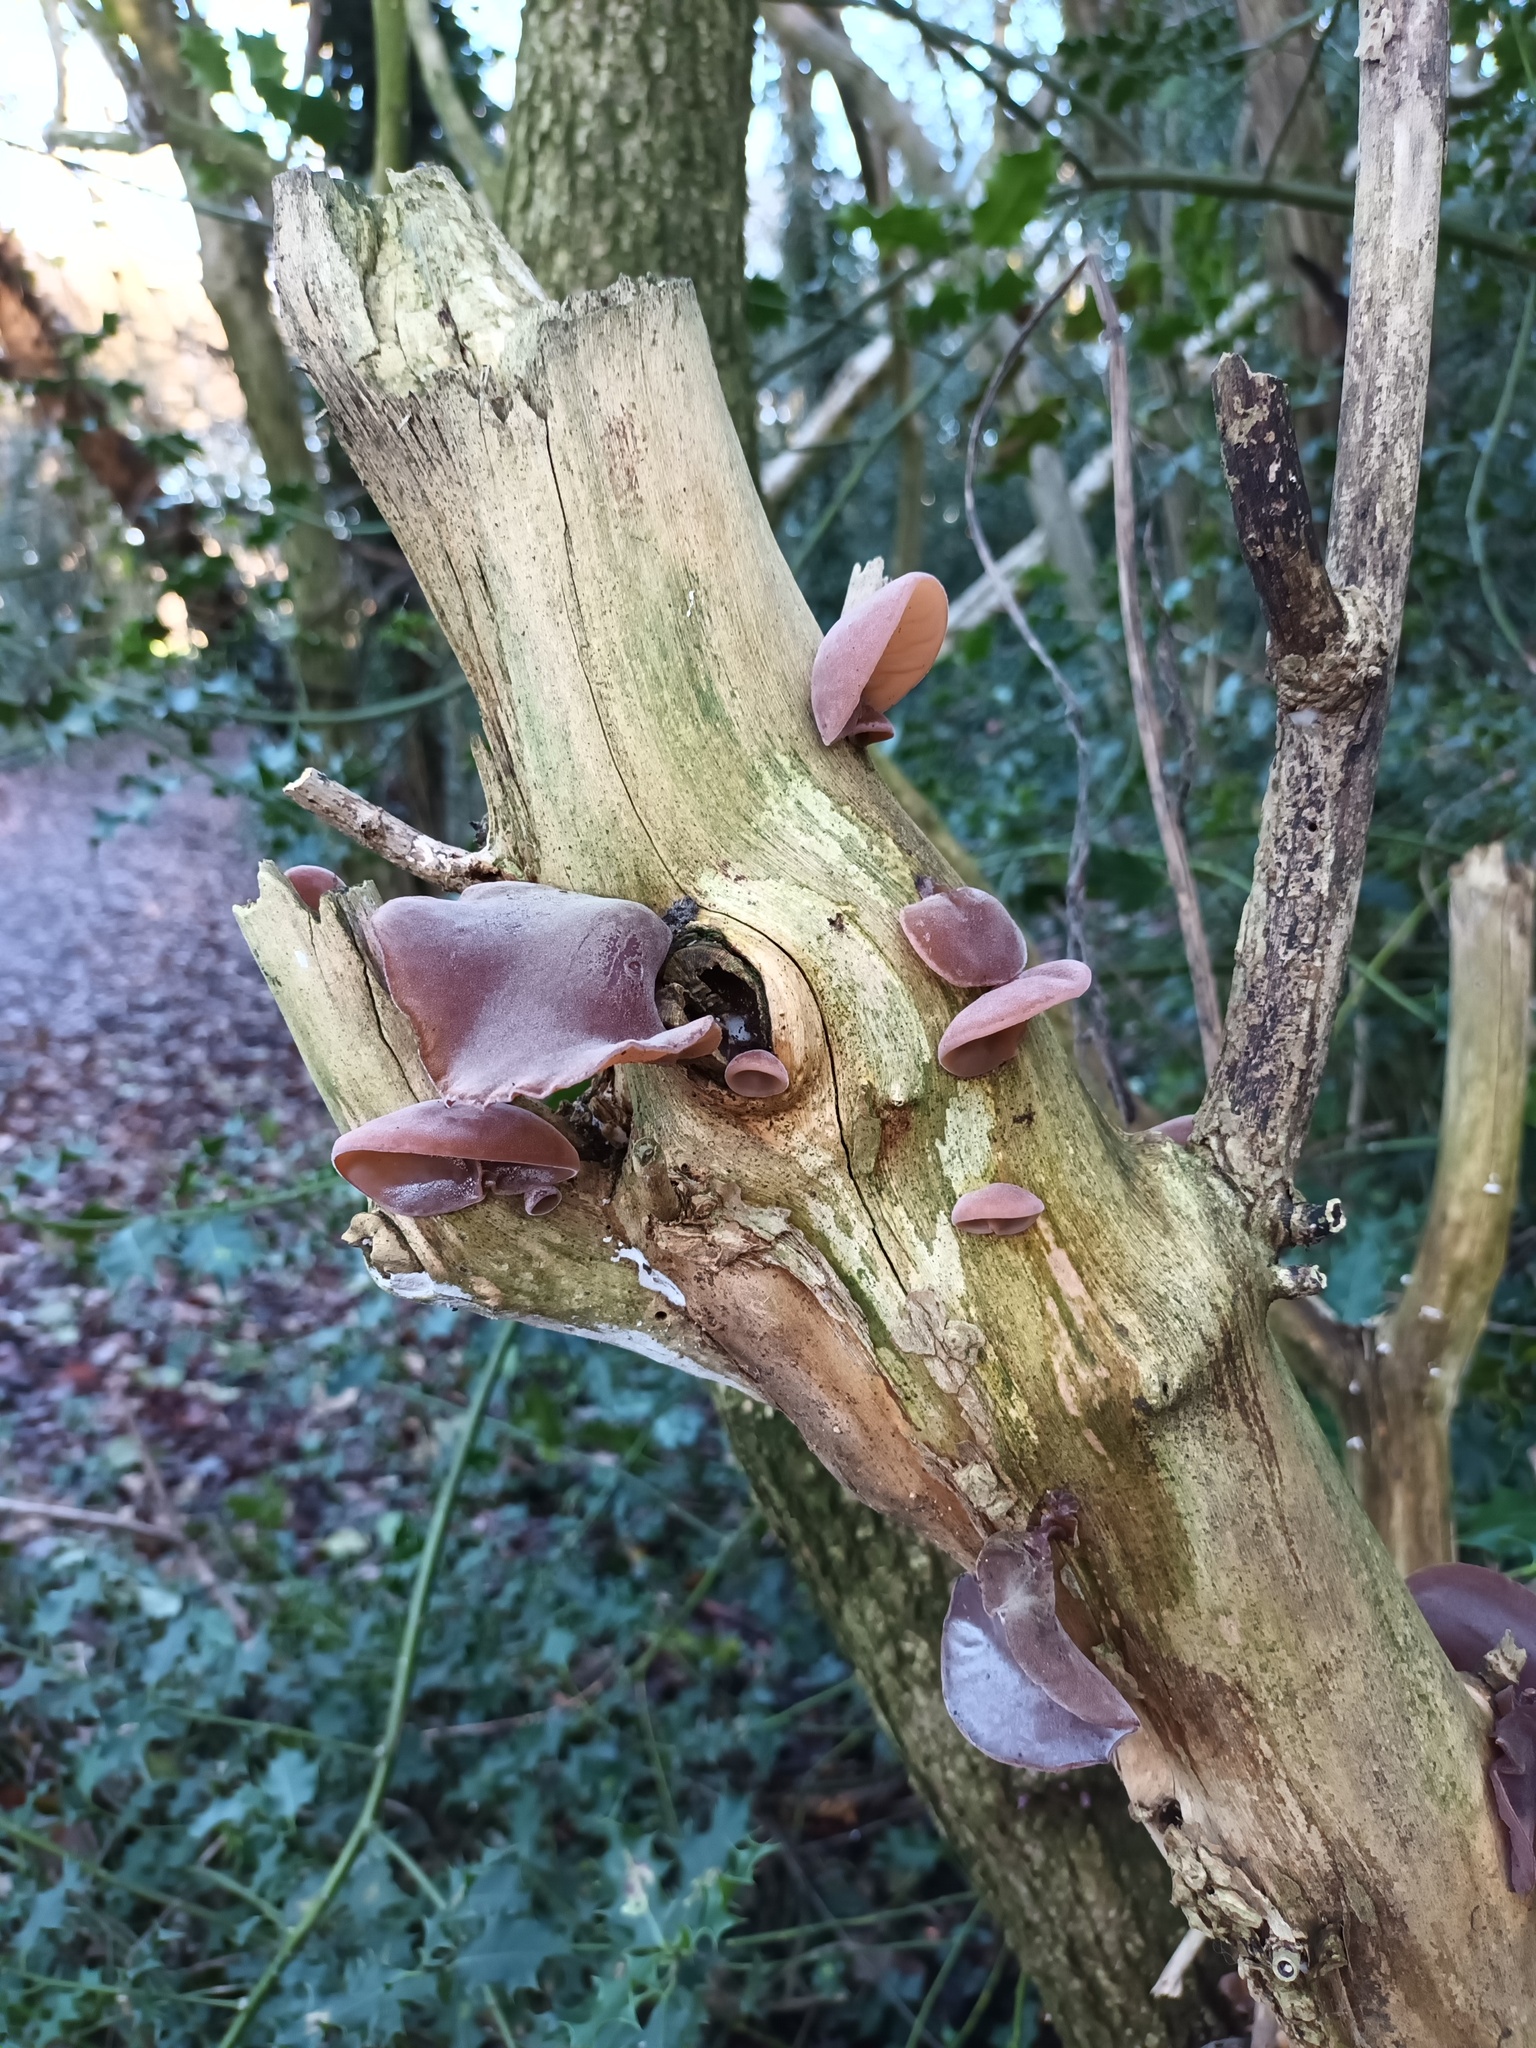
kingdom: Fungi
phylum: Basidiomycota
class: Agaricomycetes
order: Auriculariales
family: Auriculariaceae
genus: Auricularia
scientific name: Auricularia auricula-judae
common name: Jelly ear
